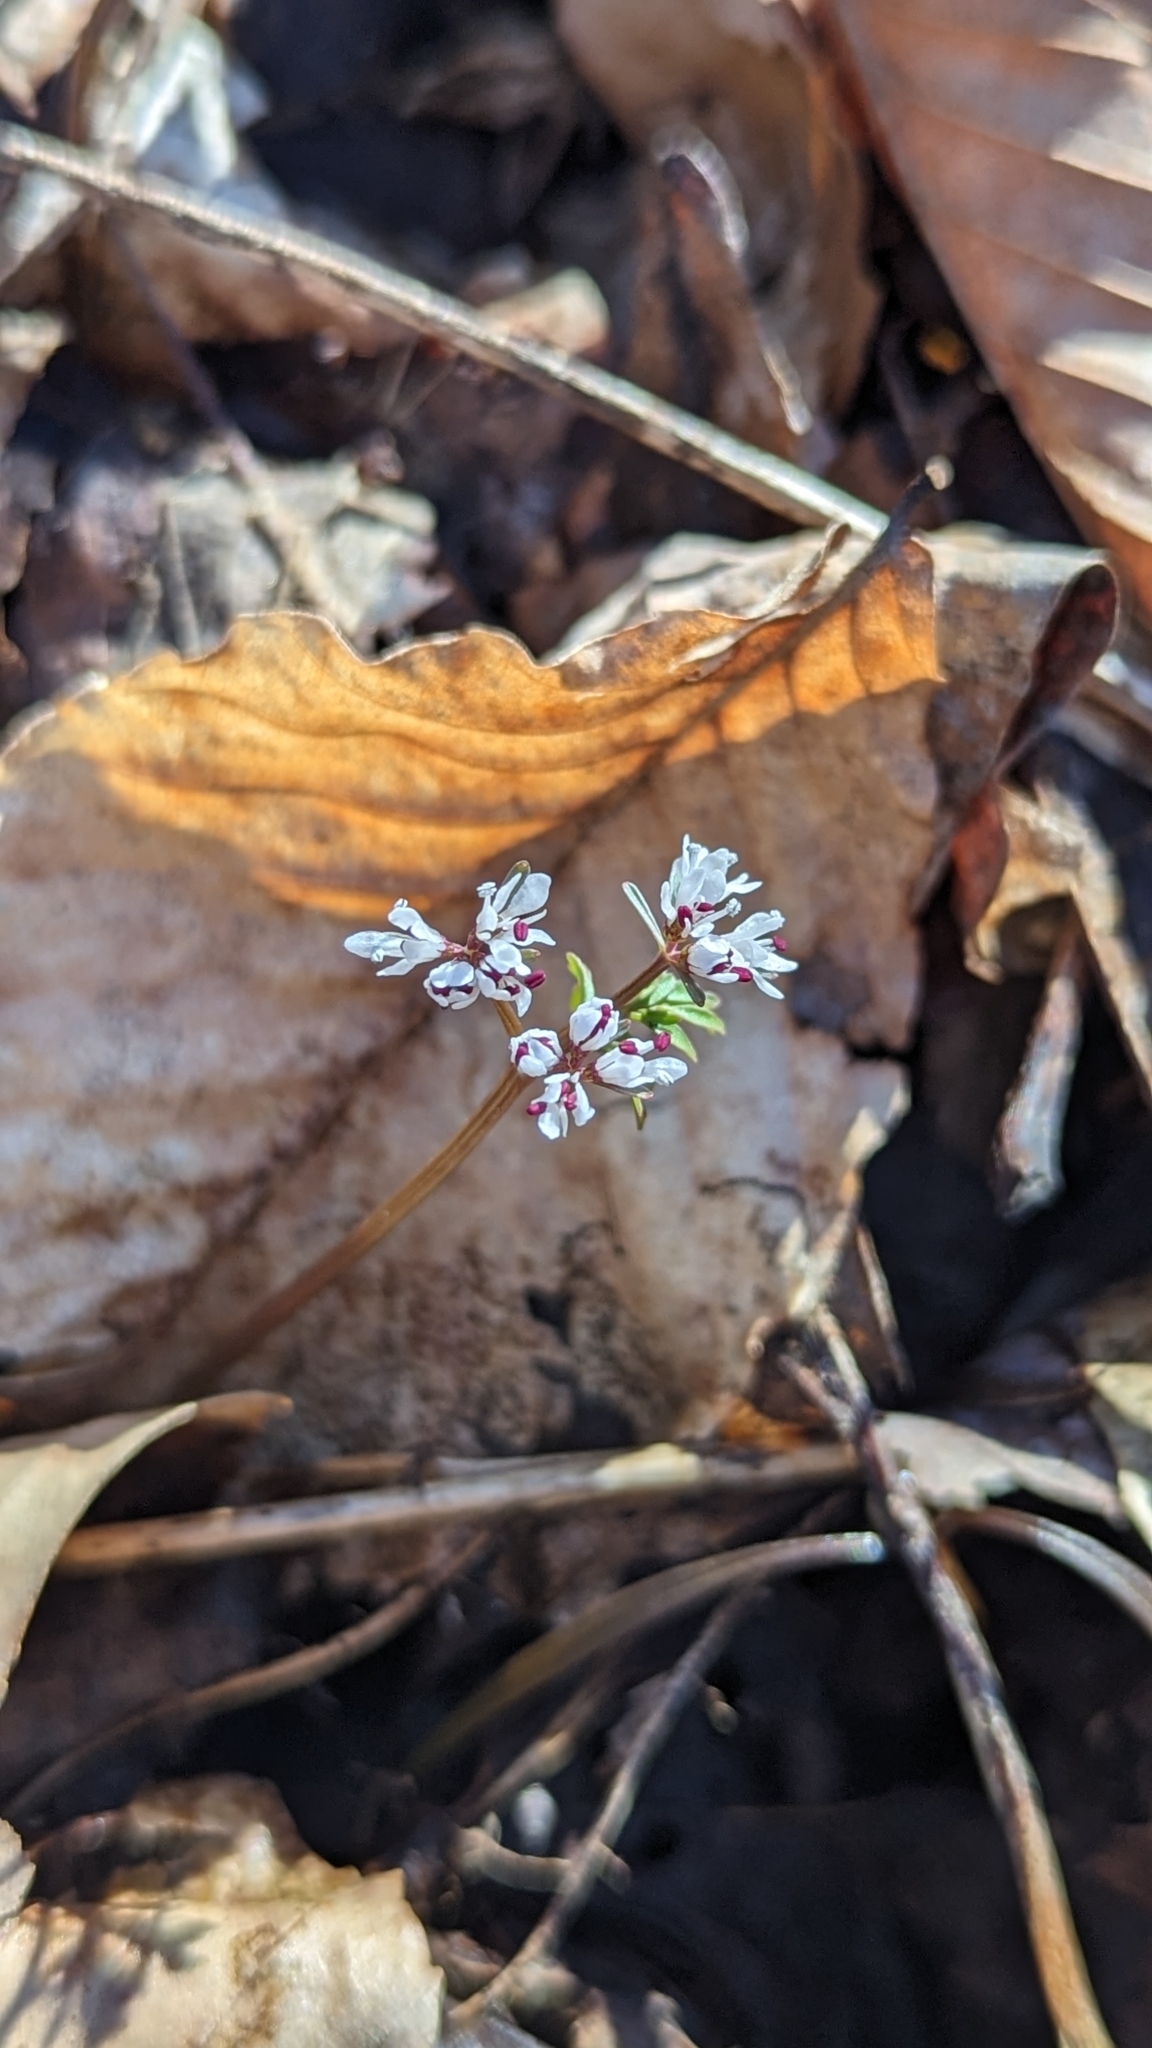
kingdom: Plantae
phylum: Tracheophyta
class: Magnoliopsida
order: Apiales
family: Apiaceae
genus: Erigenia
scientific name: Erigenia bulbosa
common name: Pepper-and-salt
